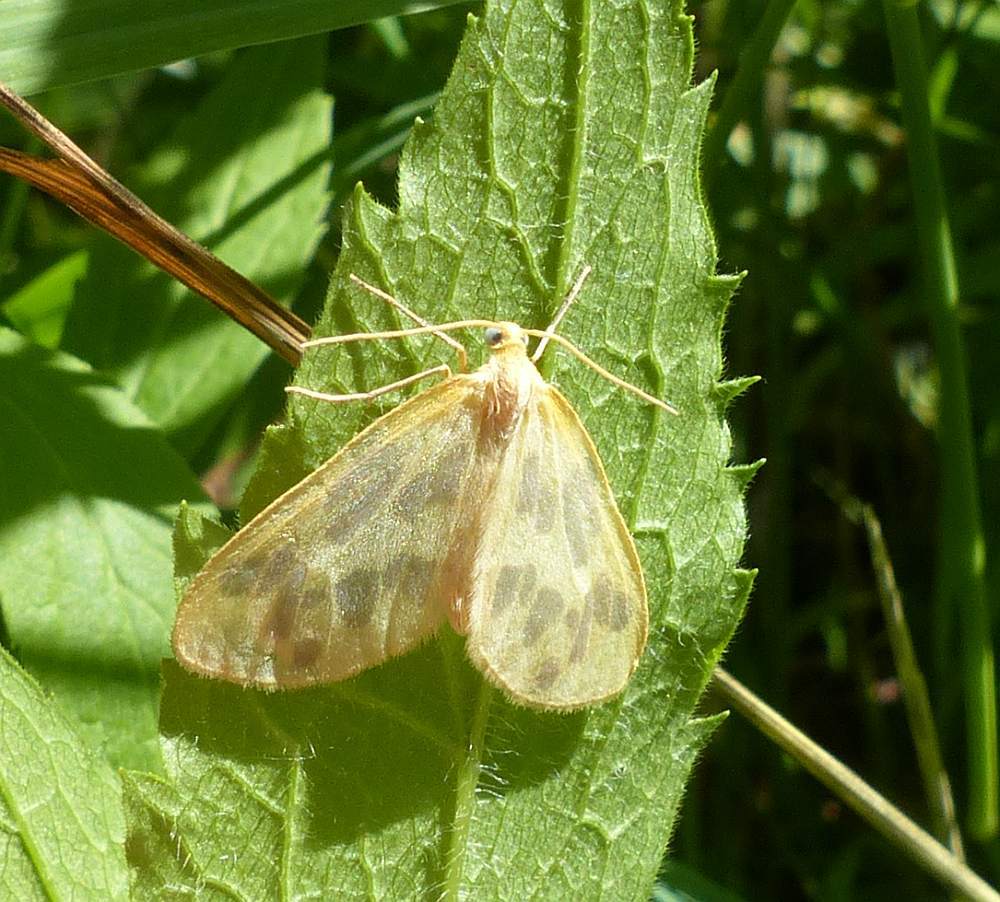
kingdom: Animalia
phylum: Arthropoda
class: Insecta
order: Lepidoptera
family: Geometridae
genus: Eubaphe
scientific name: Eubaphe mendica
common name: Beggar
